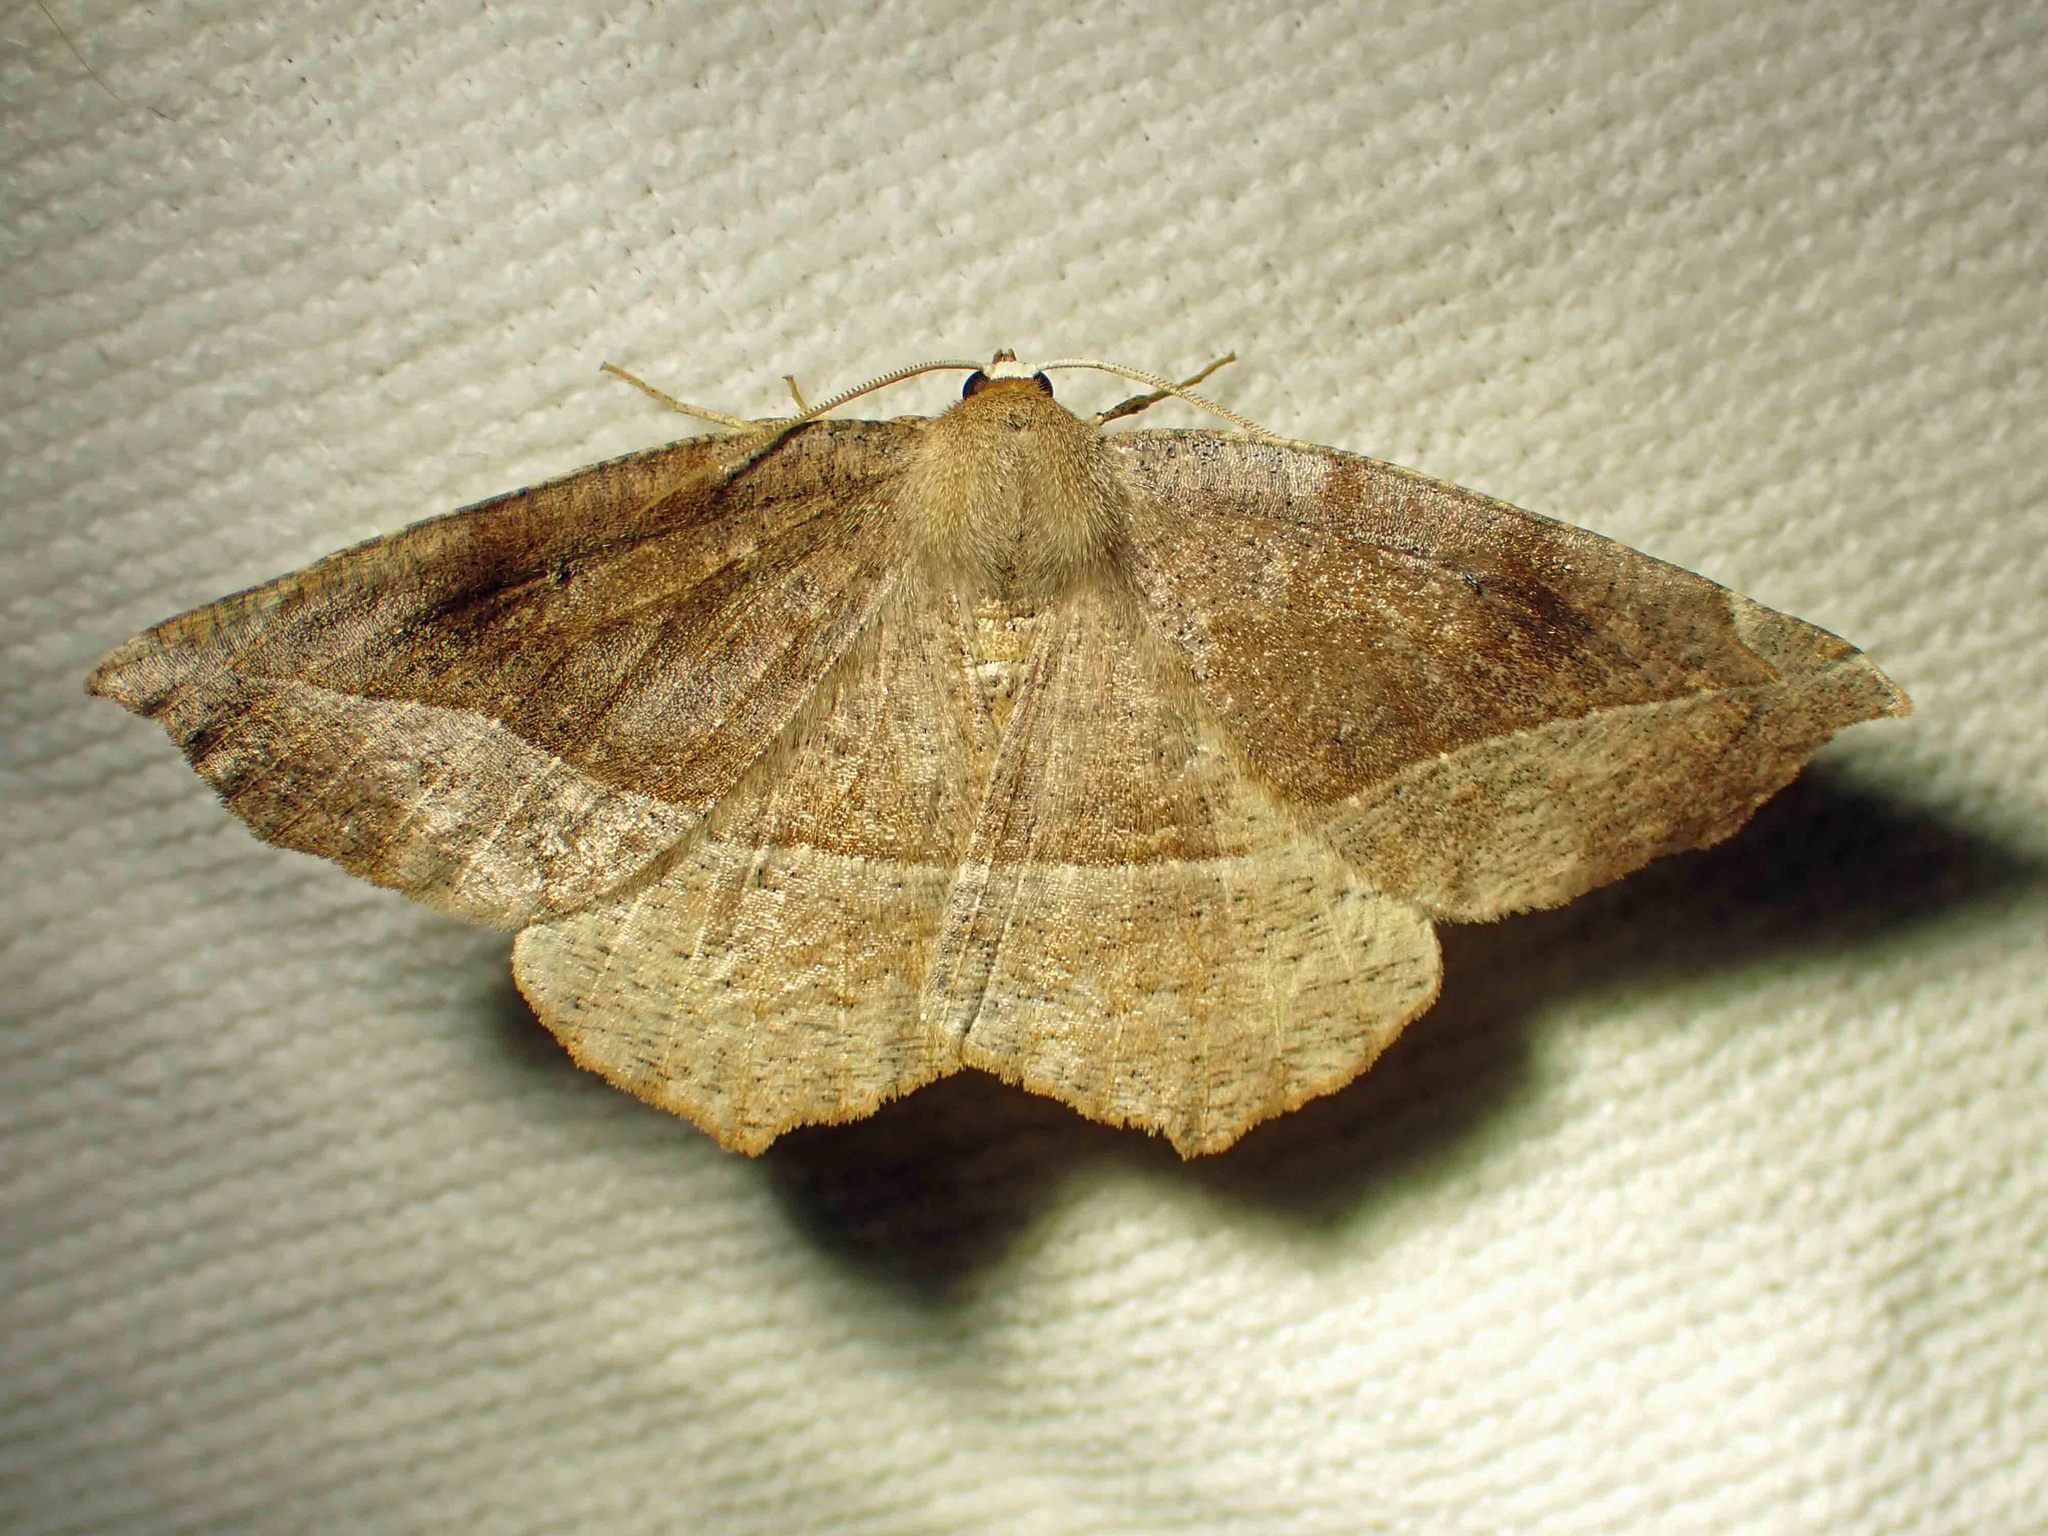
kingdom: Animalia
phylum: Arthropoda
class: Insecta
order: Lepidoptera
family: Geometridae
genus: Eutrapela
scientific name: Eutrapela clemataria
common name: Curved-toothed geometer
